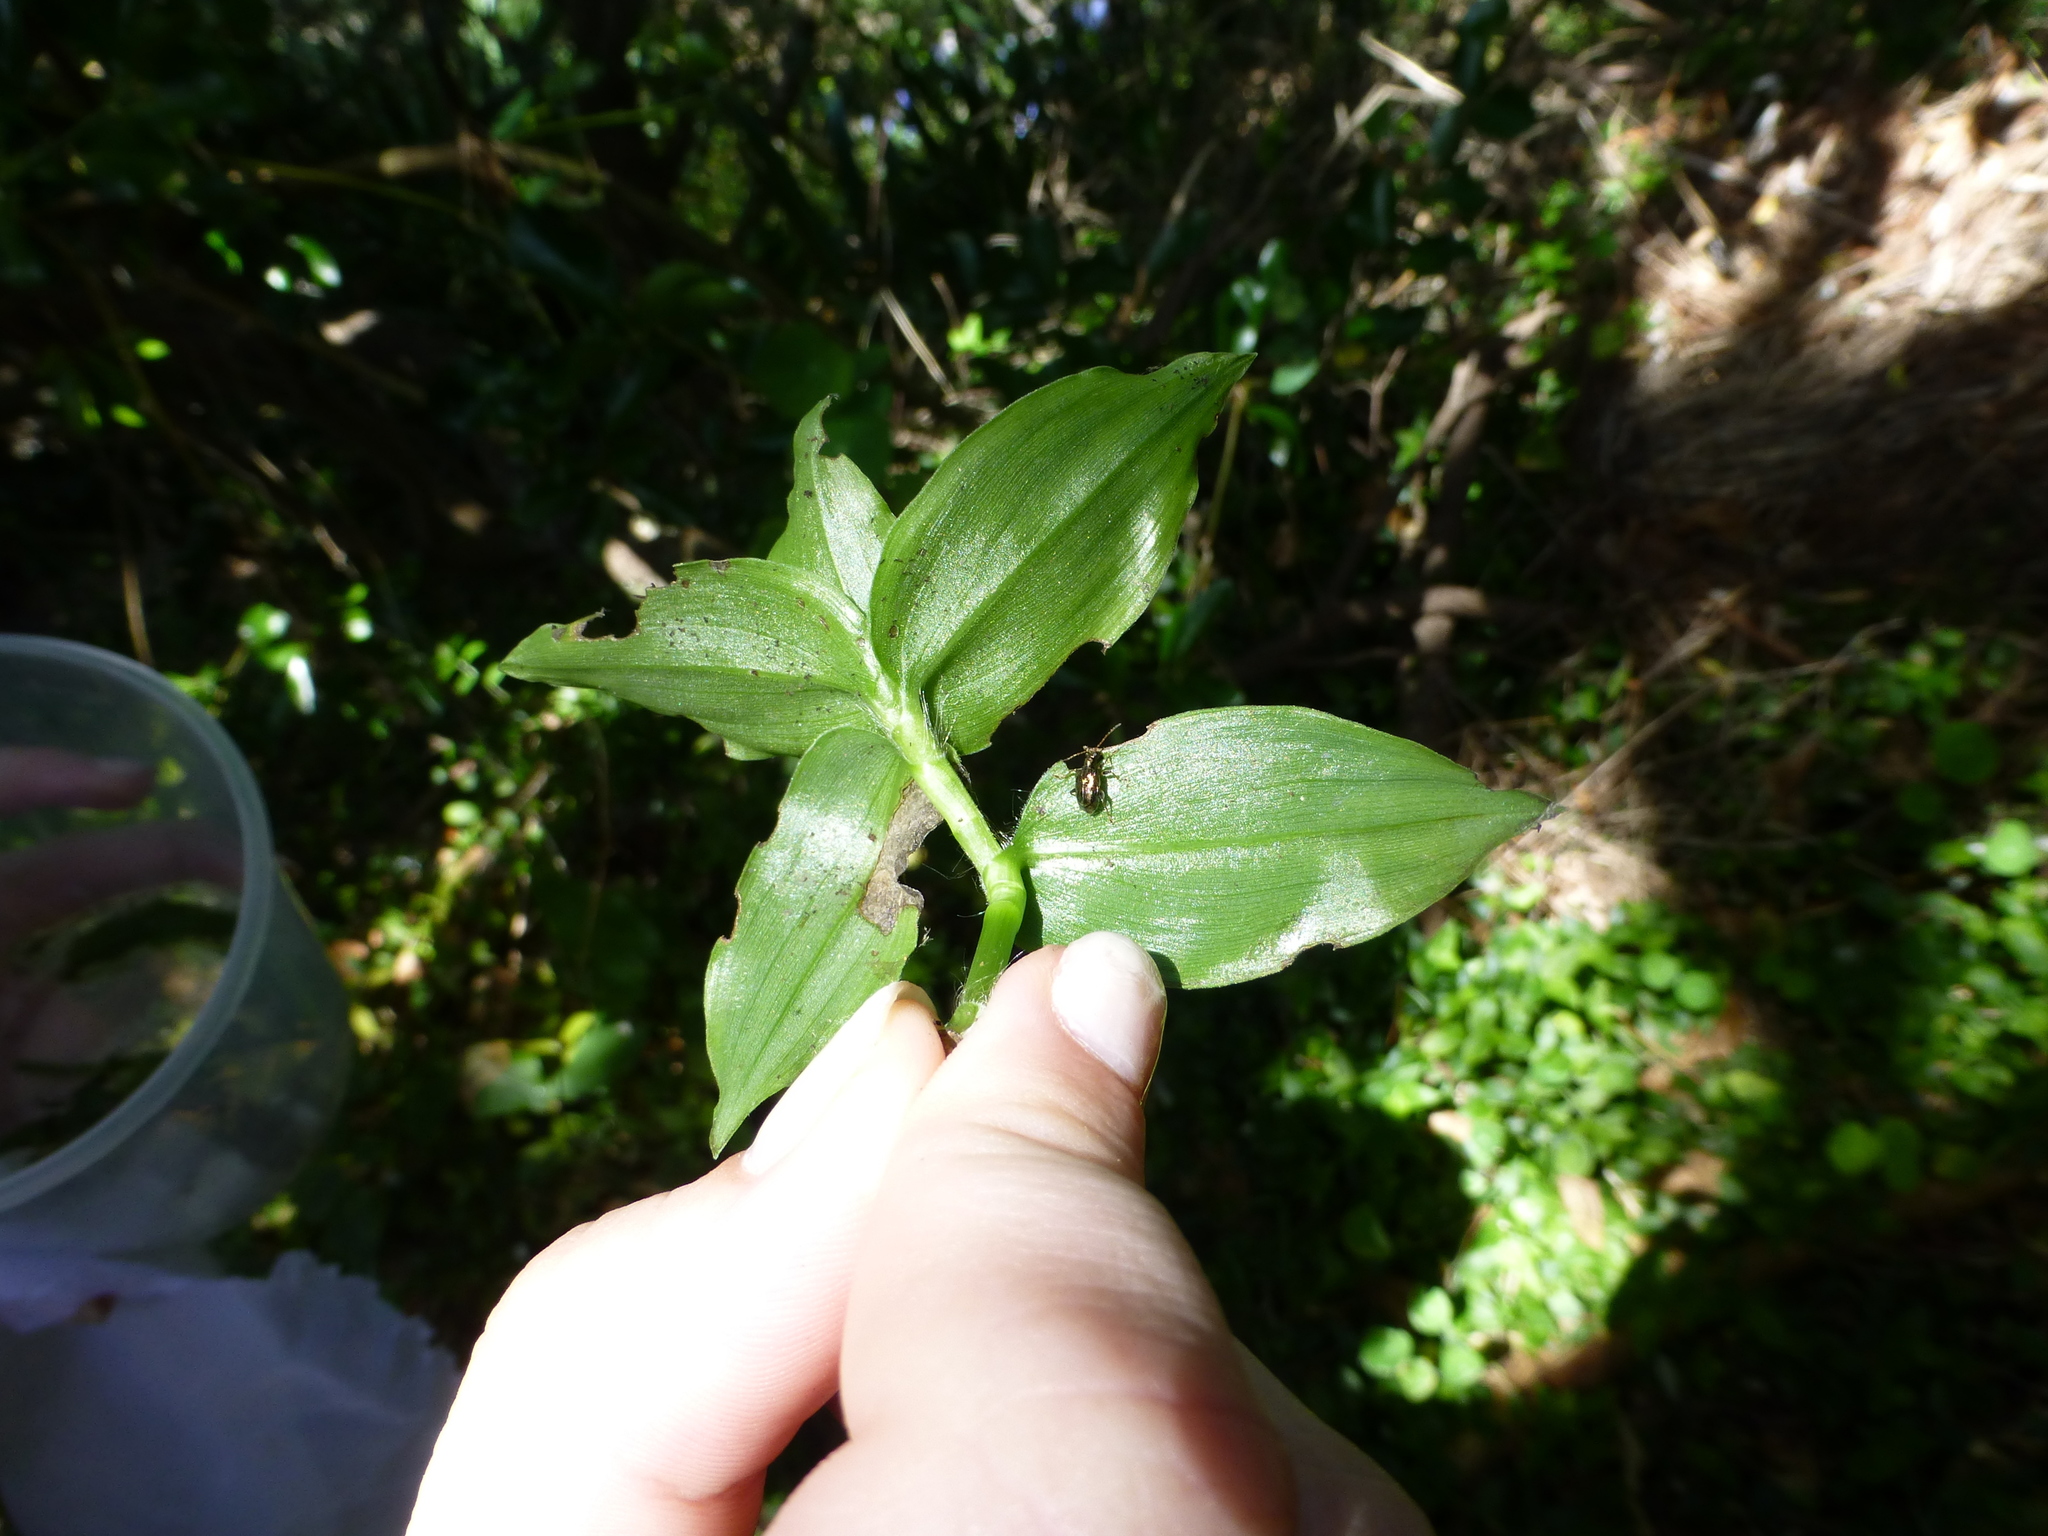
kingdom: Animalia
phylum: Arthropoda
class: Insecta
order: Coleoptera
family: Chrysomelidae
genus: Neolema
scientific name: Neolema ogloblini
